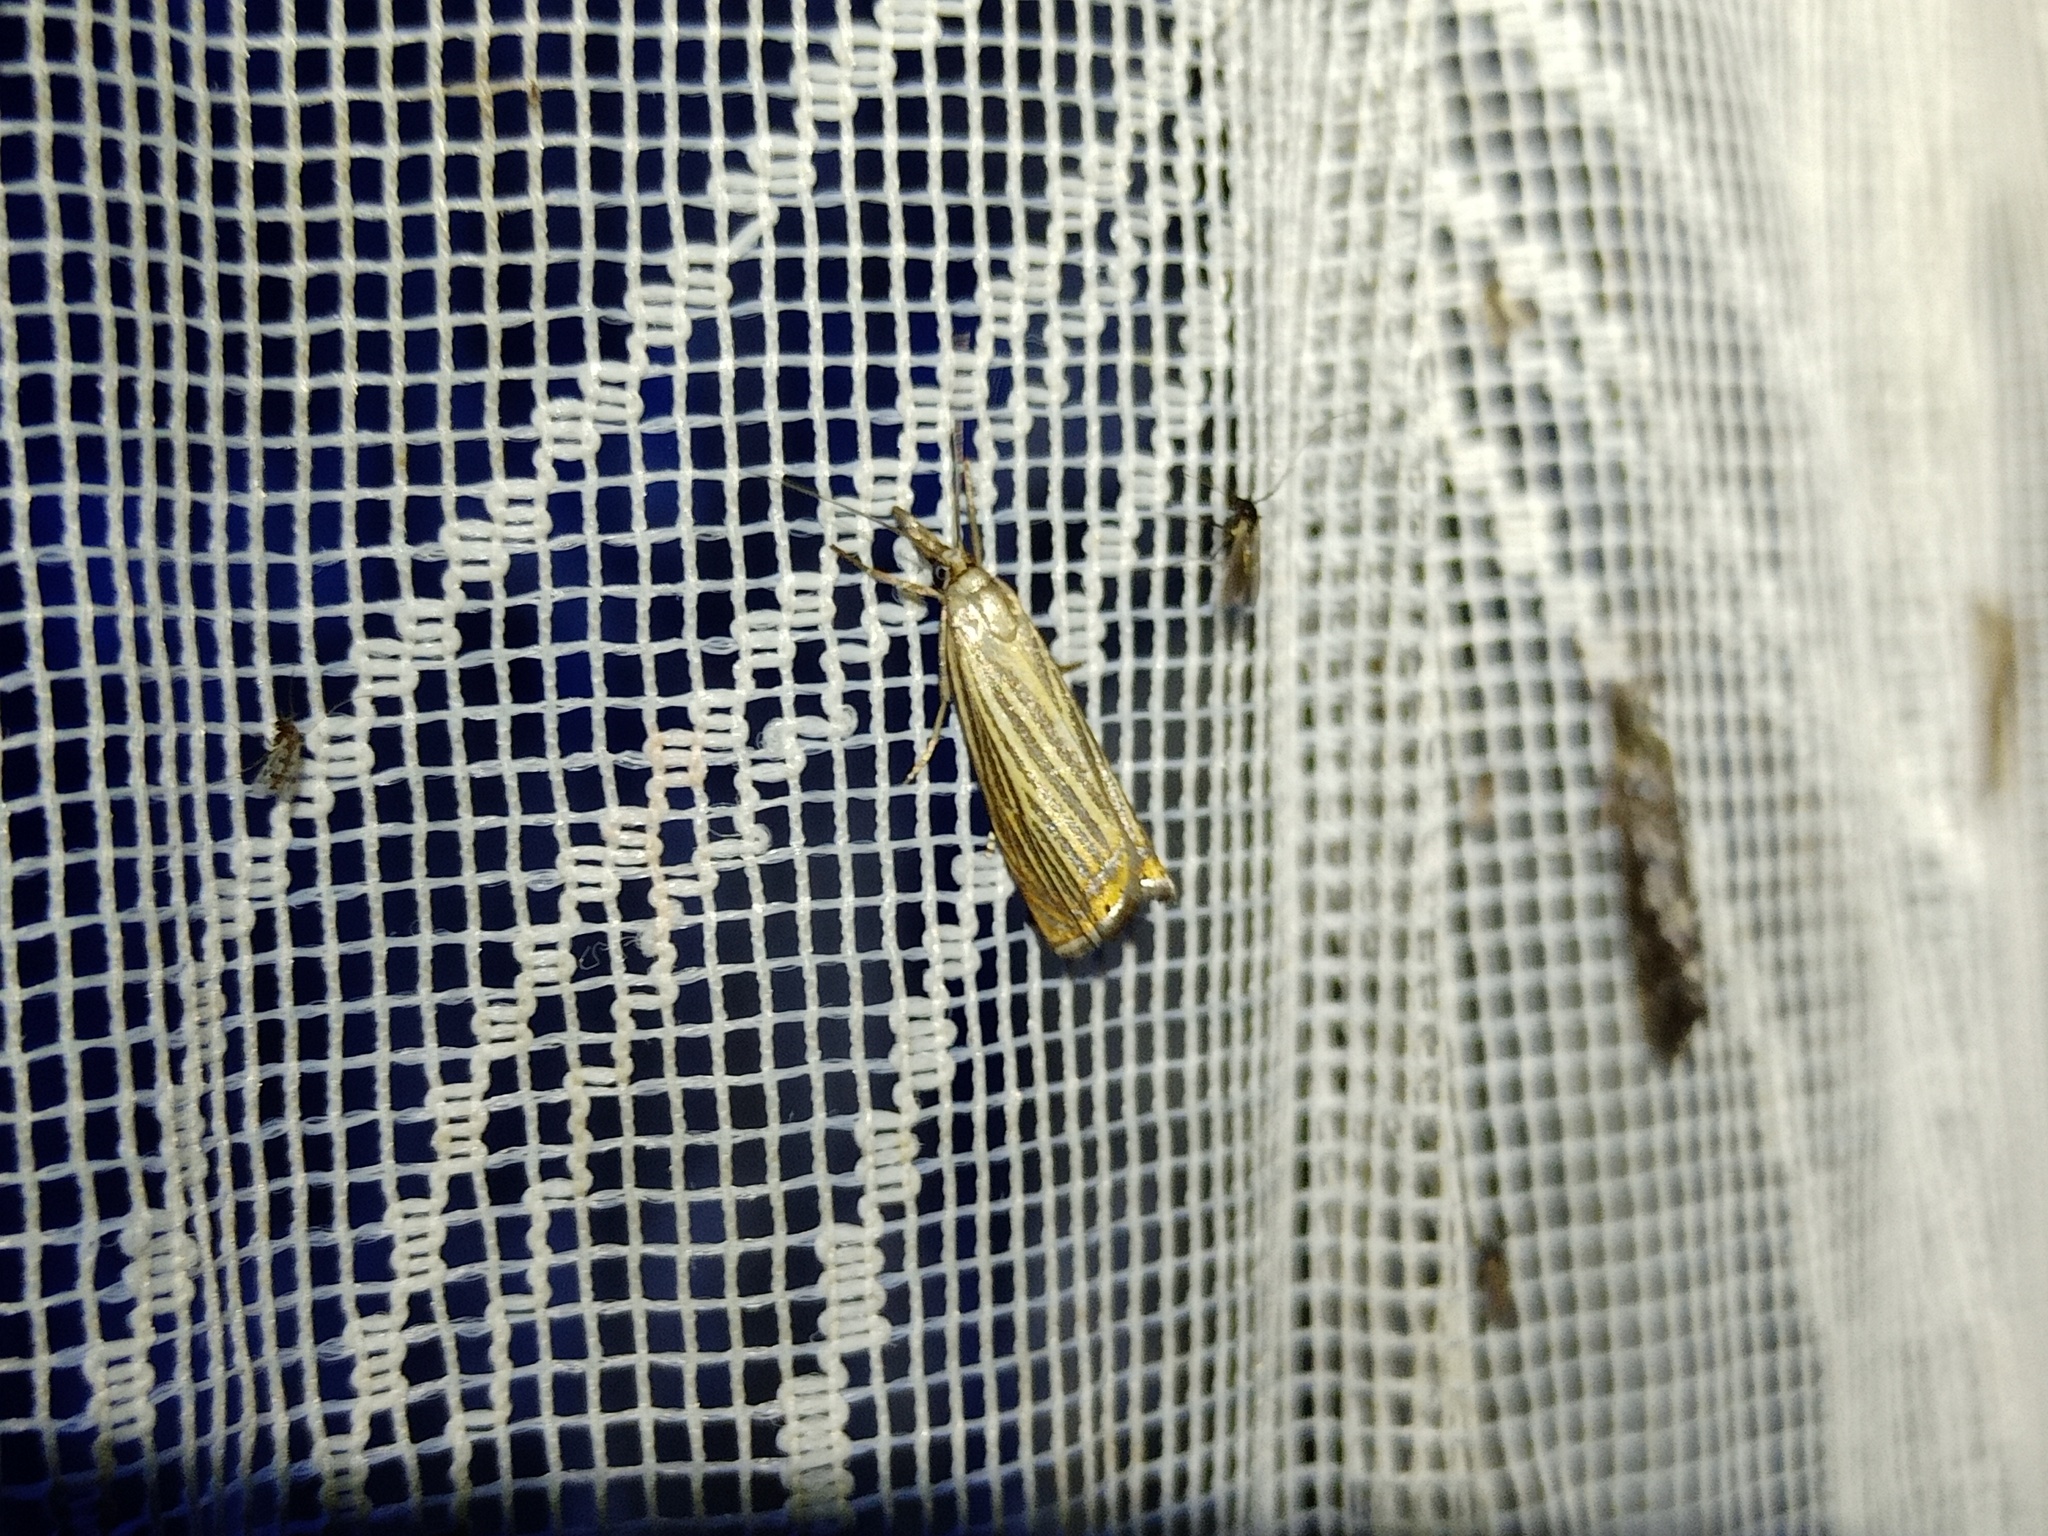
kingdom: Animalia
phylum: Arthropoda
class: Insecta
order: Lepidoptera
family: Crambidae
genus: Chrysoteuchia
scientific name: Chrysoteuchia culmella
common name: Garden grass-veneer
